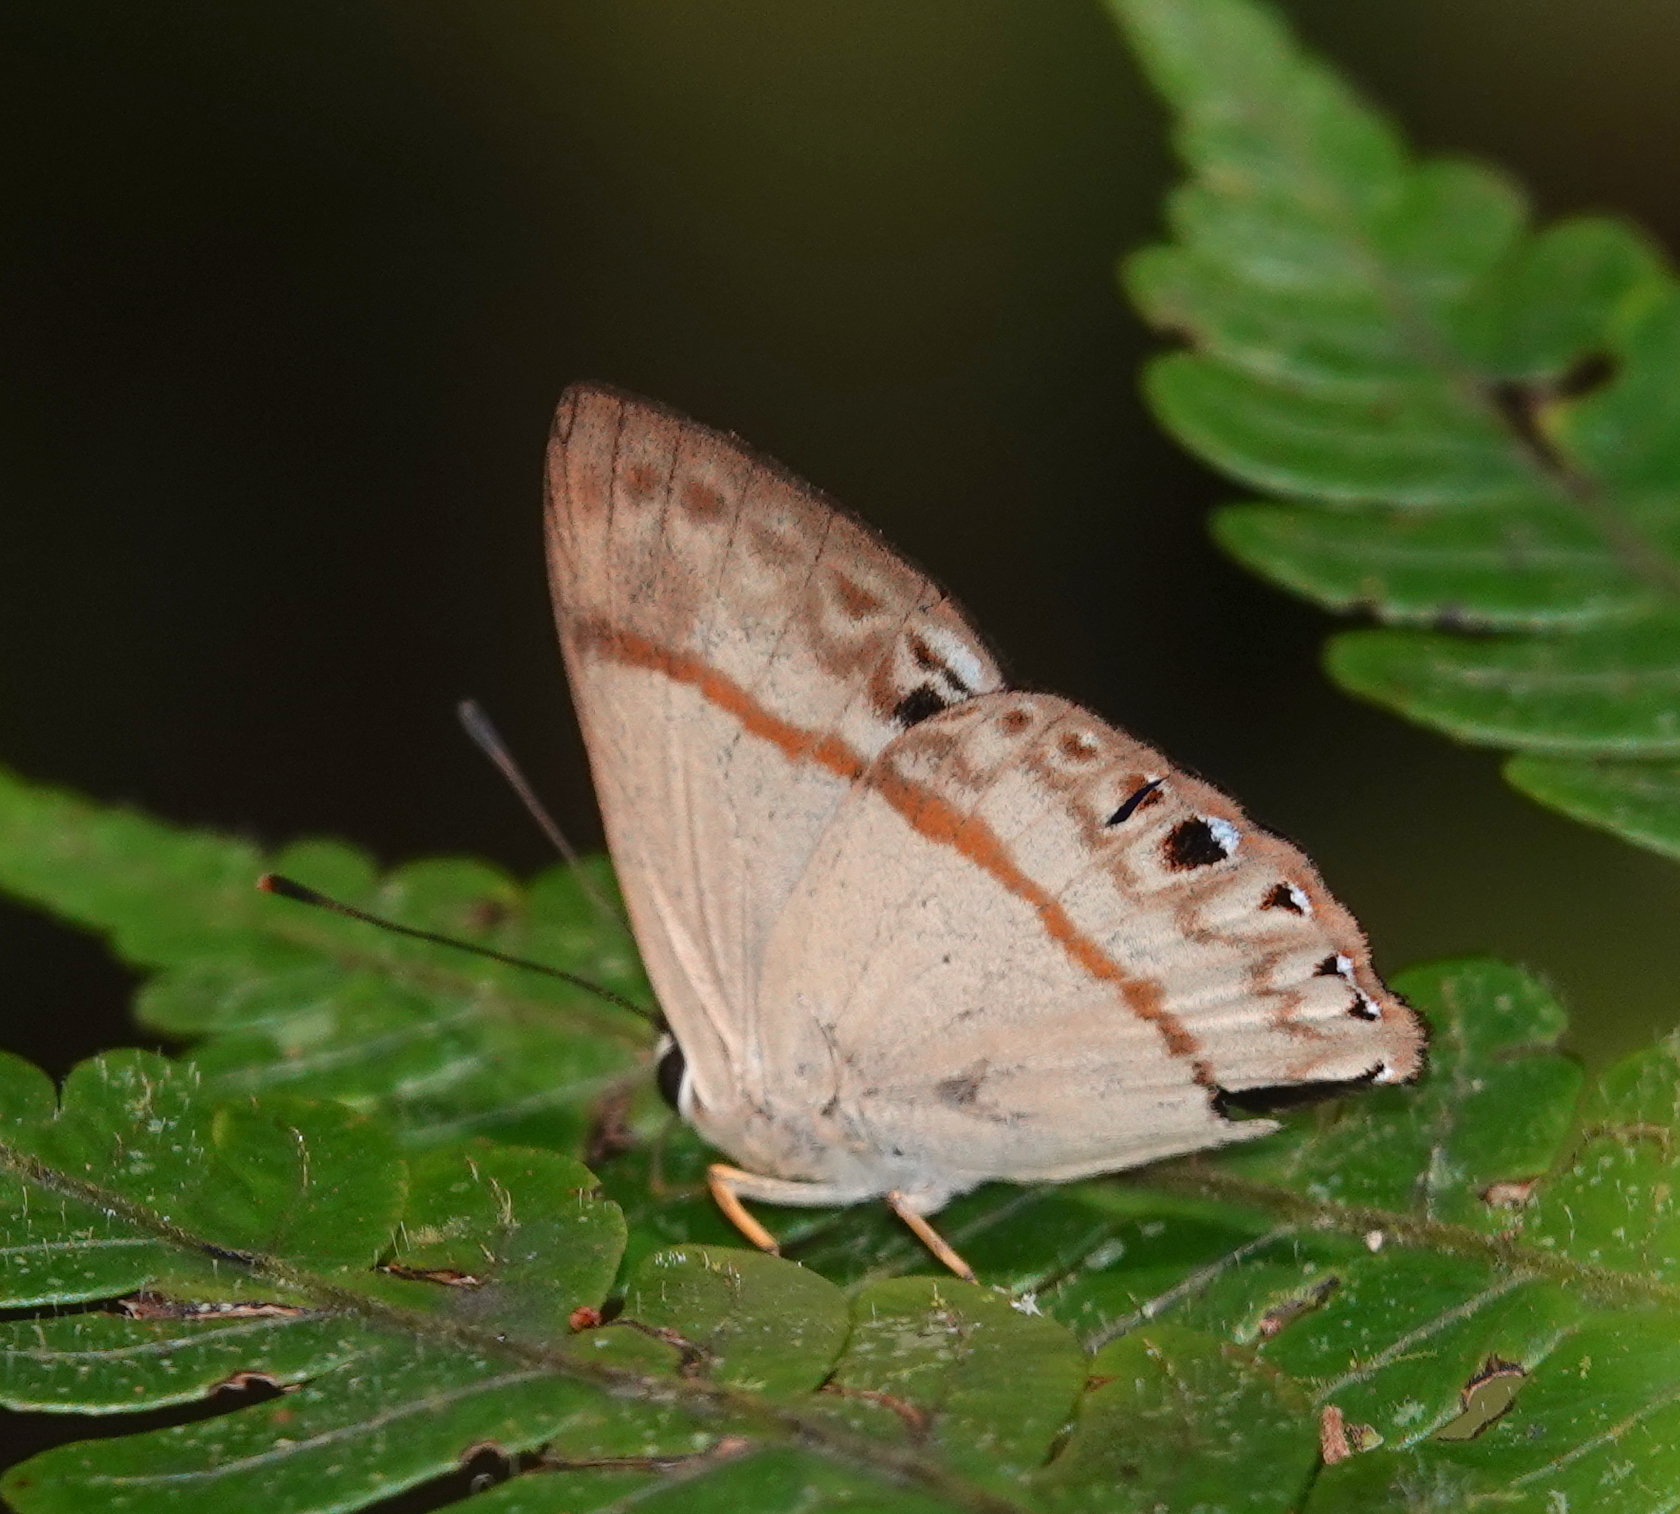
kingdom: Animalia
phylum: Arthropoda
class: Insecta
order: Lepidoptera
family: Lycaenidae
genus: Euselasia
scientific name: Euselasia midas
